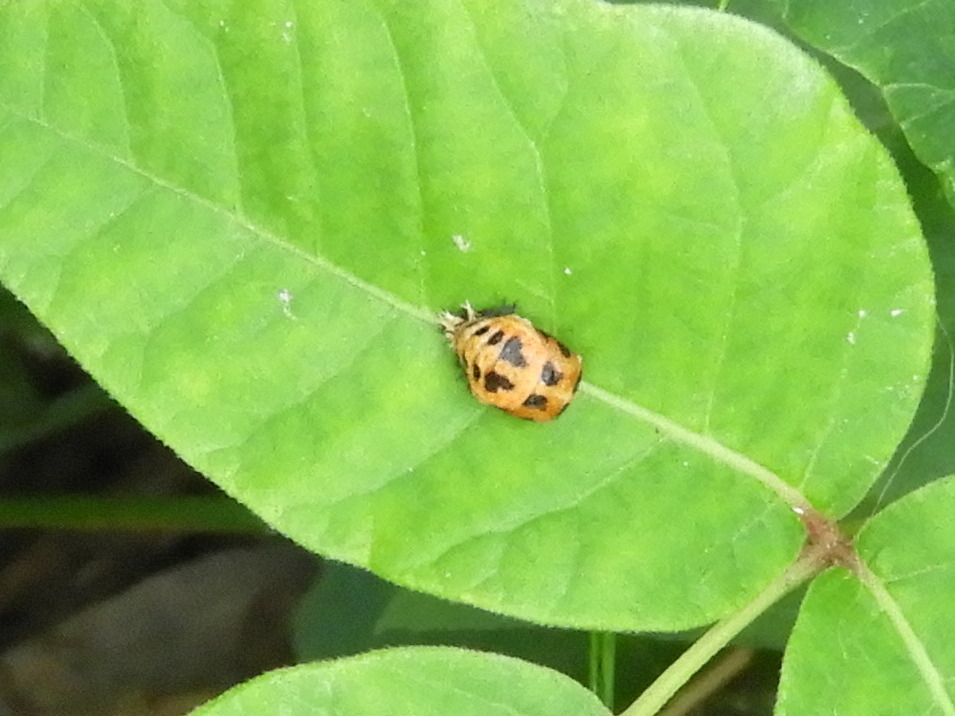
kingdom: Animalia
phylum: Arthropoda
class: Insecta
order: Coleoptera
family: Coccinellidae
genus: Harmonia
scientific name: Harmonia axyridis
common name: Harlequin ladybird
